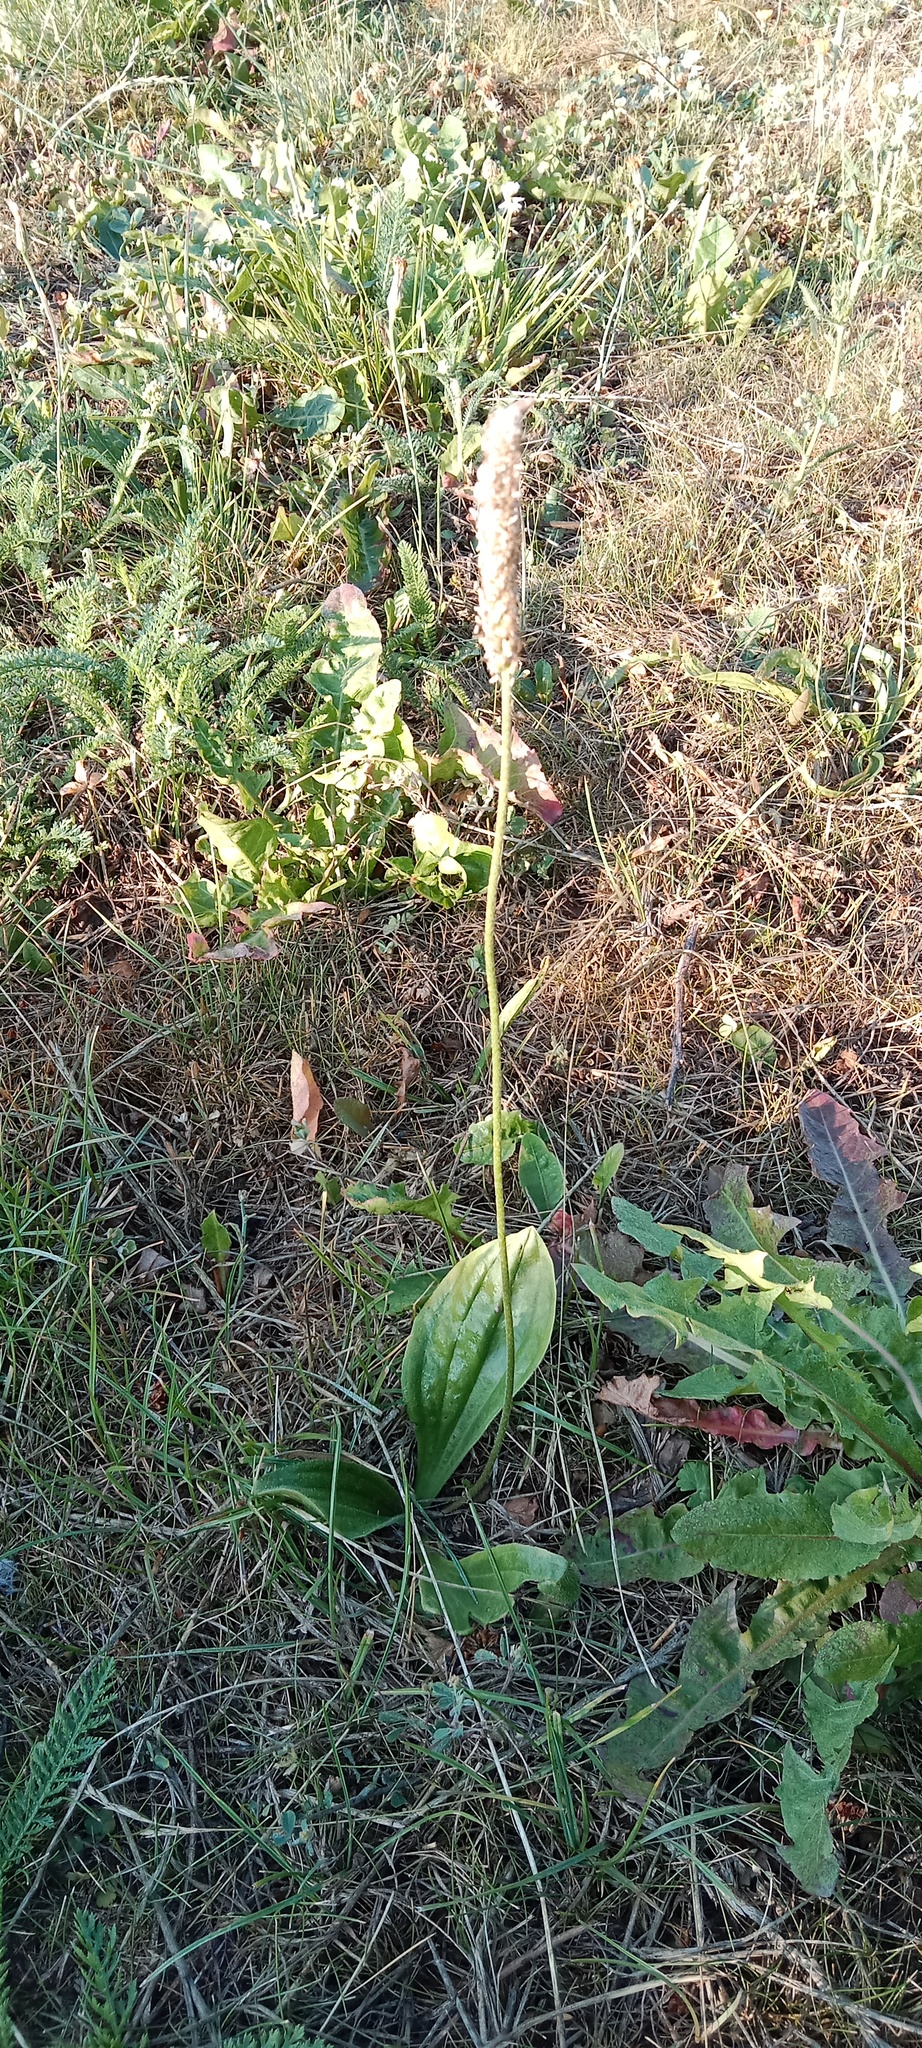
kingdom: Plantae
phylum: Tracheophyta
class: Magnoliopsida
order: Lamiales
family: Plantaginaceae
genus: Plantago
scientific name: Plantago media
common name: Hoary plantain
